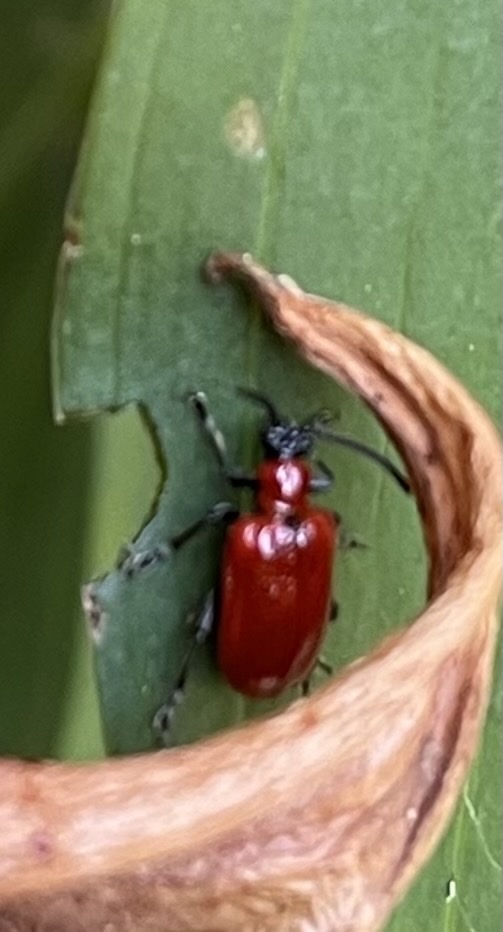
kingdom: Animalia
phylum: Arthropoda
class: Insecta
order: Coleoptera
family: Chrysomelidae
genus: Lilioceris
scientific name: Lilioceris lilii
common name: Lily beetle
